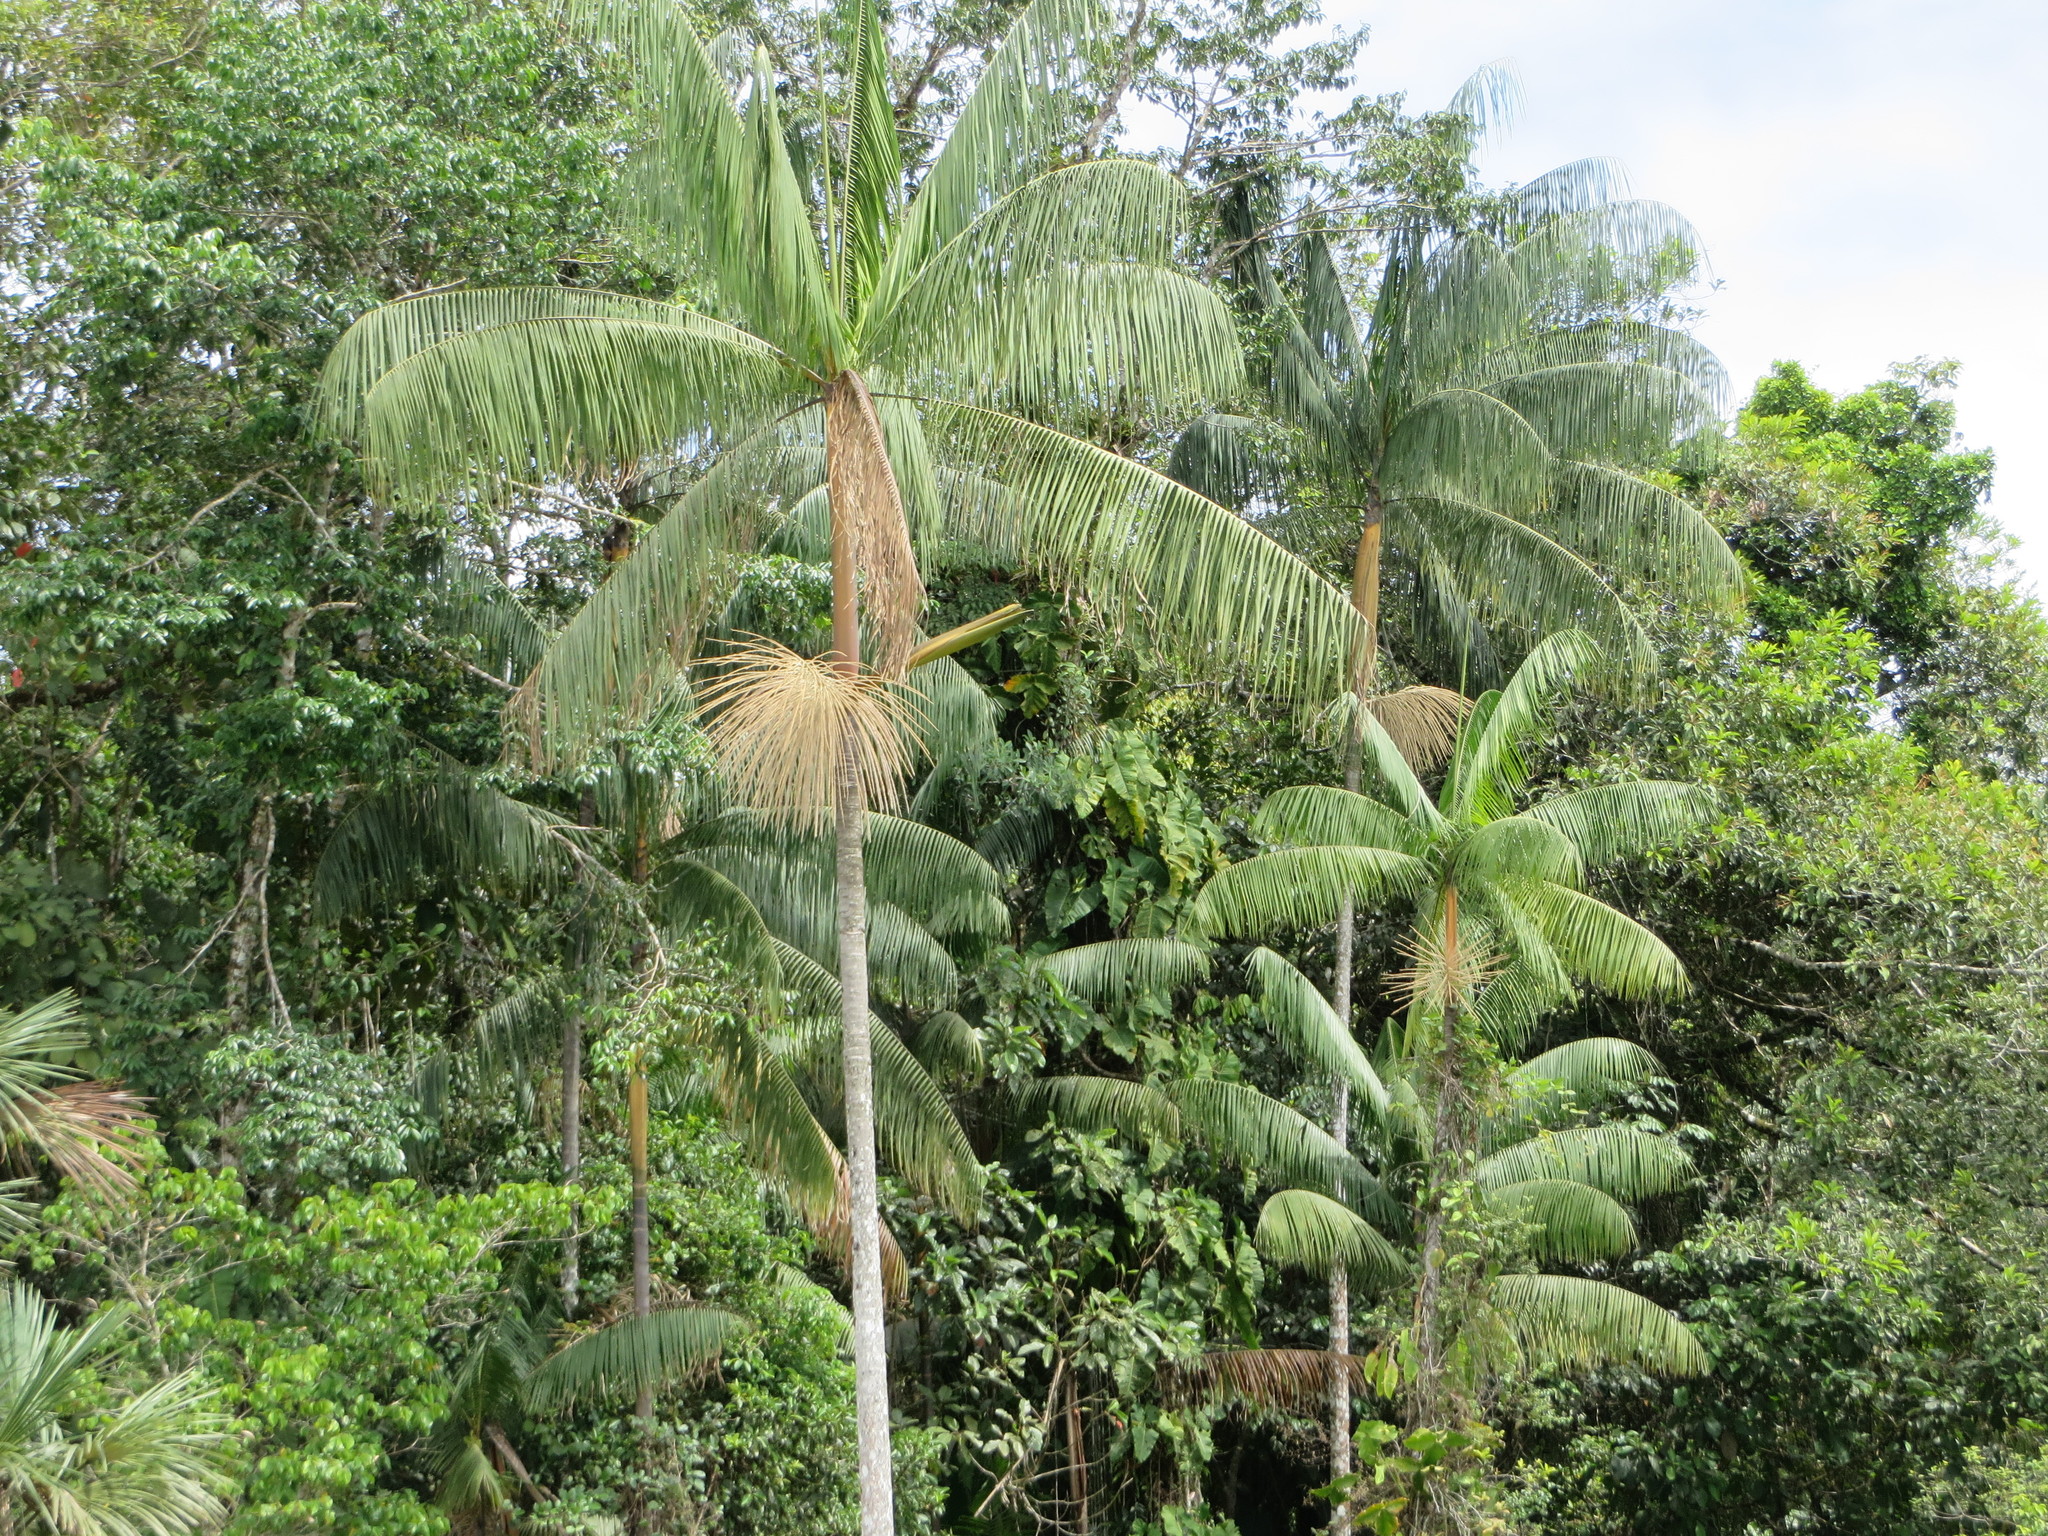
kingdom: Plantae
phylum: Tracheophyta
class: Liliopsida
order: Arecales
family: Arecaceae
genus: Euterpe
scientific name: Euterpe precatoria
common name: Mountain-cabbage
